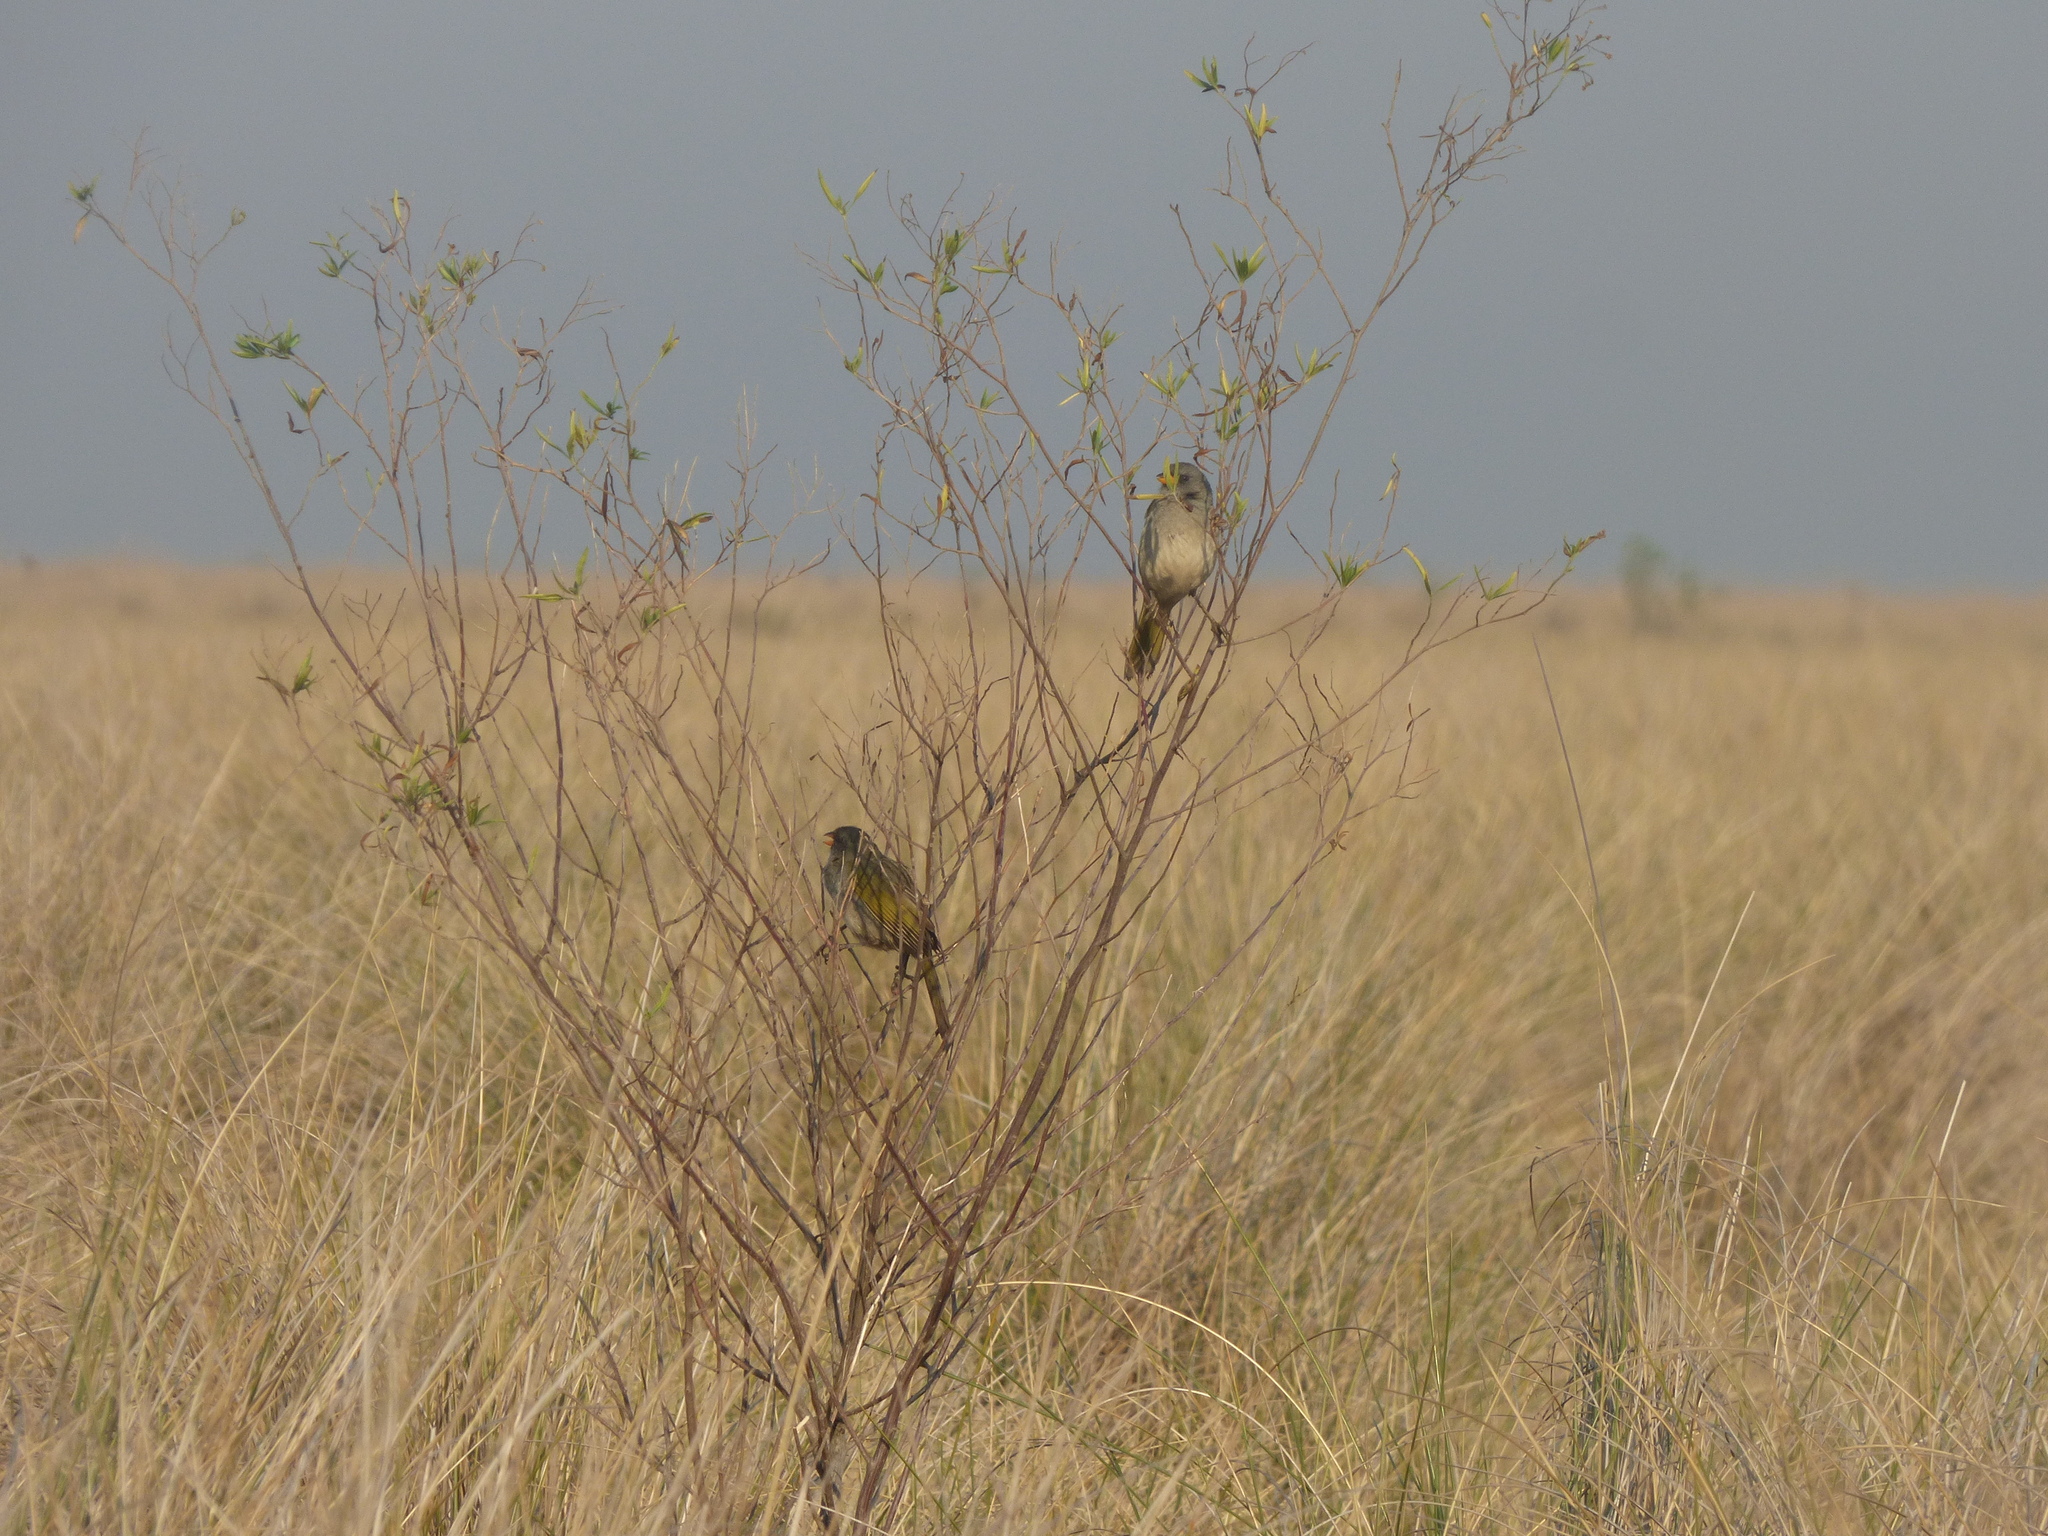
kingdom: Animalia
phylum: Chordata
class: Aves
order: Passeriformes
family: Thraupidae
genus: Embernagra
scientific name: Embernagra platensis
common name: Pampa finch
